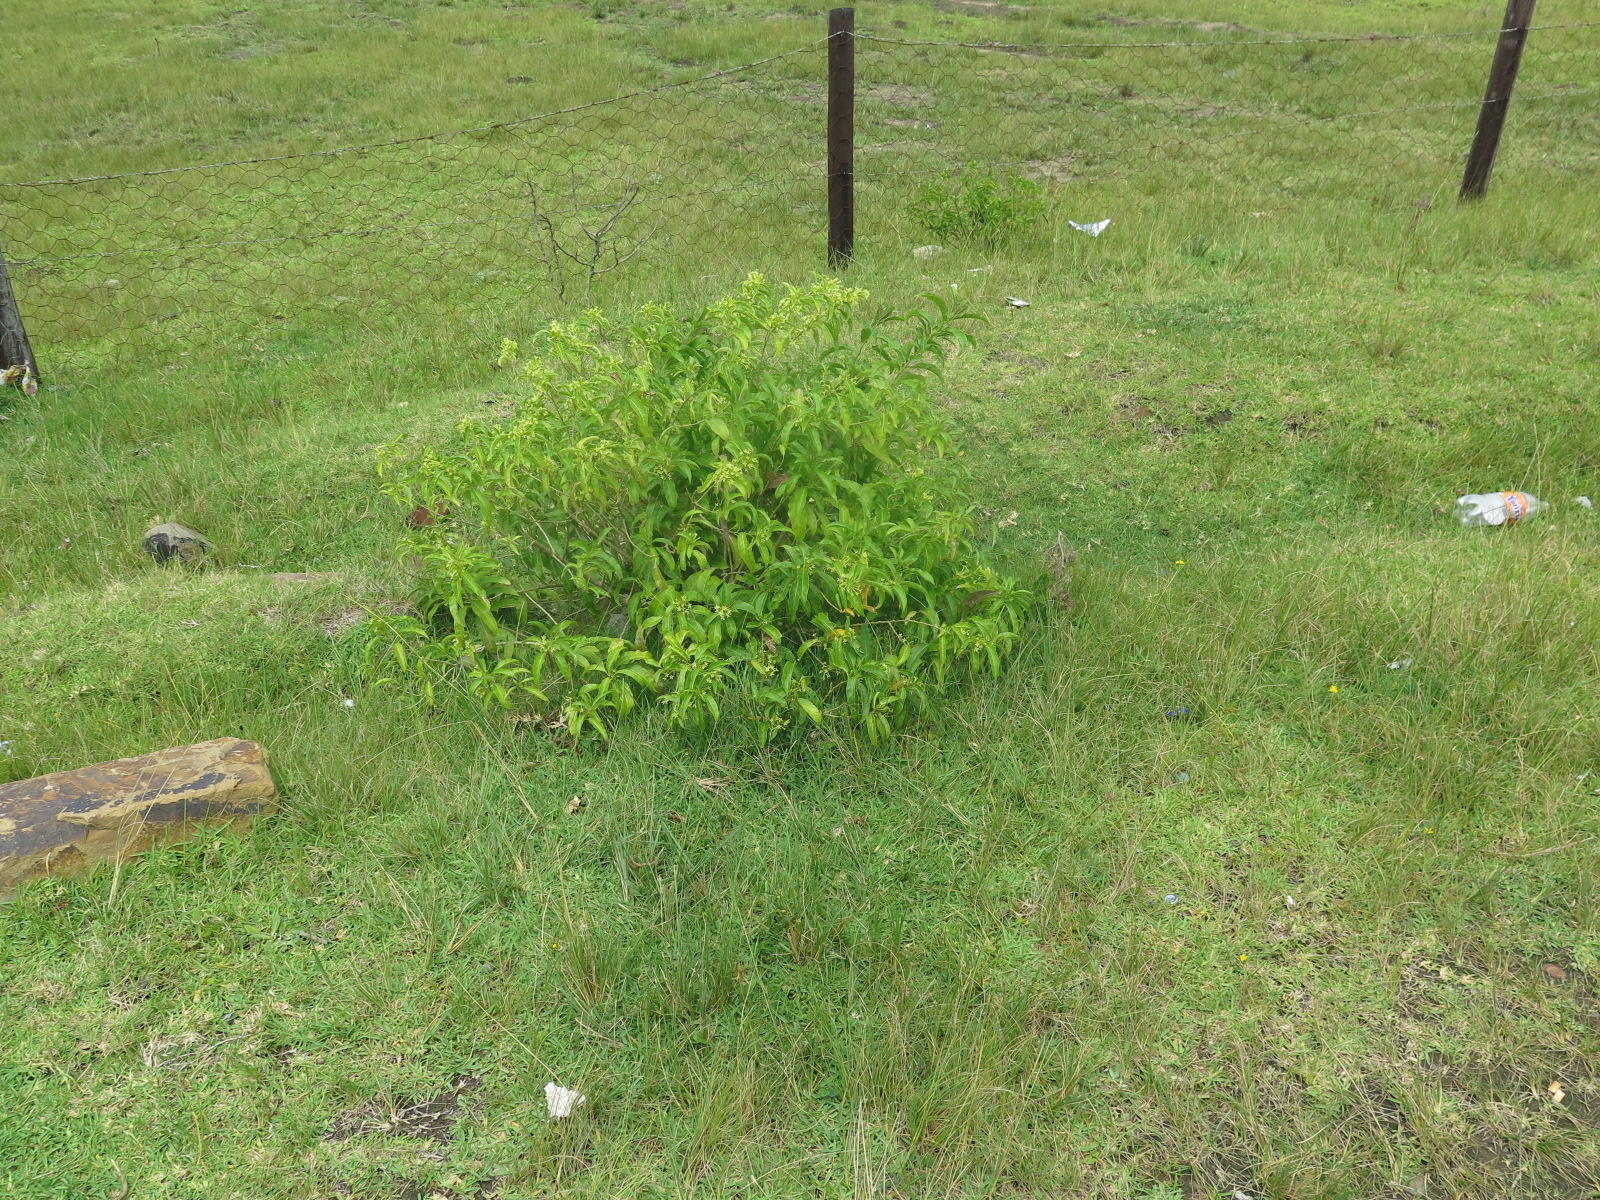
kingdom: Plantae
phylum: Tracheophyta
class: Magnoliopsida
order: Solanales
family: Solanaceae
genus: Cestrum
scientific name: Cestrum laevigatum
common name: Inkberry
